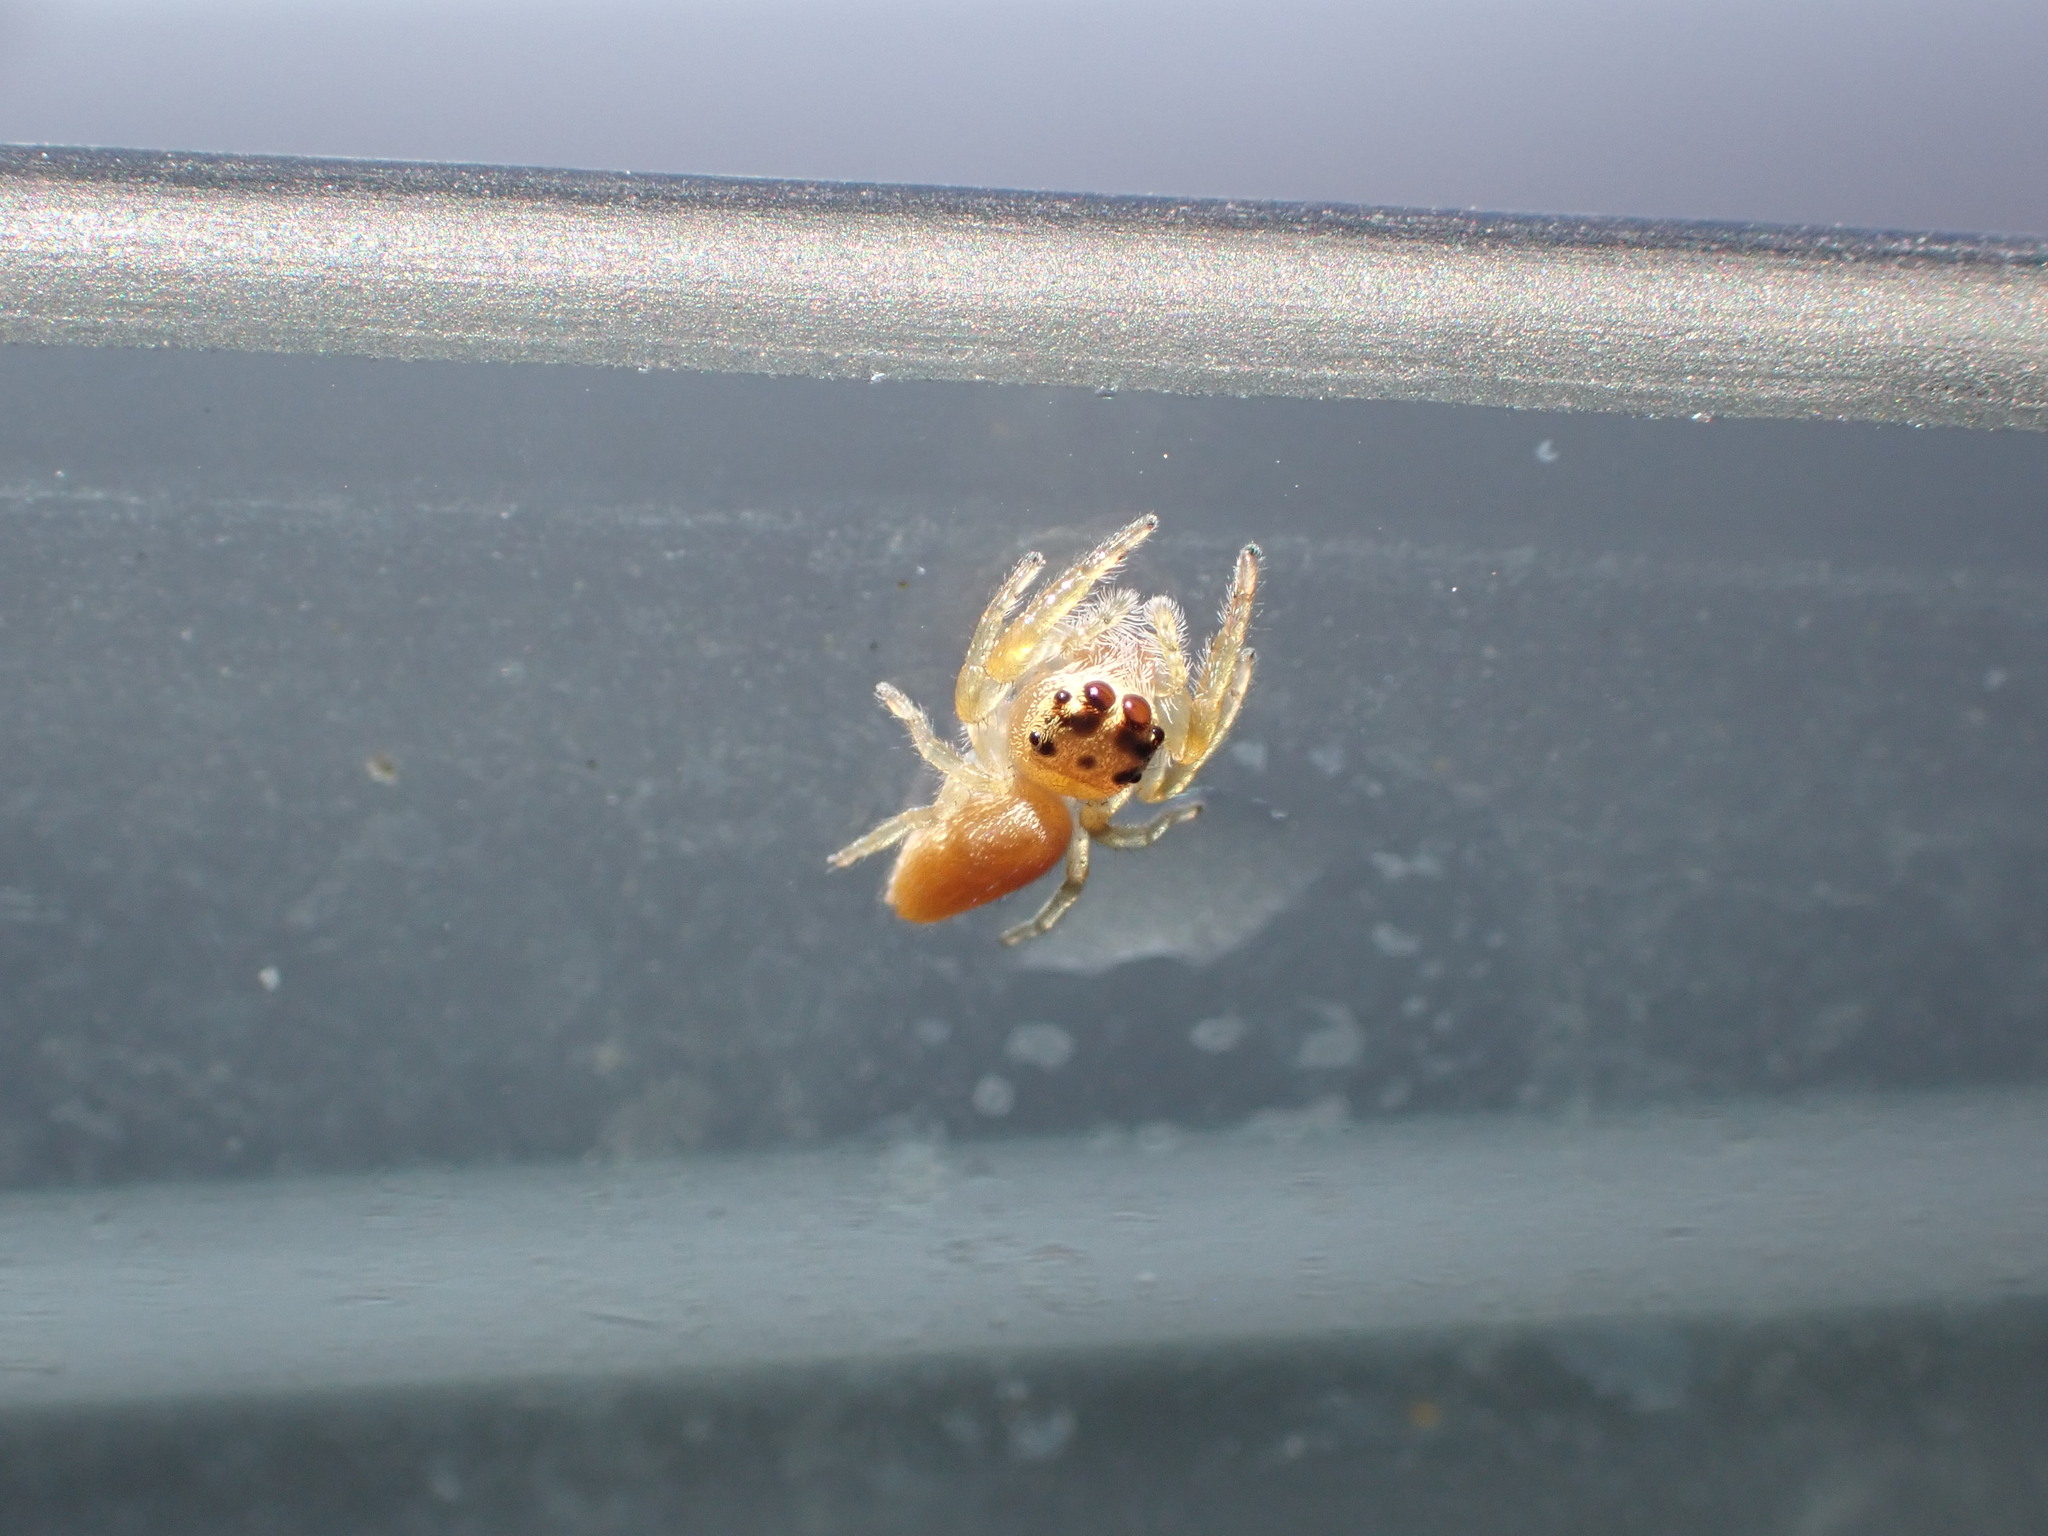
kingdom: Animalia
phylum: Arthropoda
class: Arachnida
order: Araneae
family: Salticidae
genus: Opisthoncus
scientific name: Opisthoncus polyphemus
